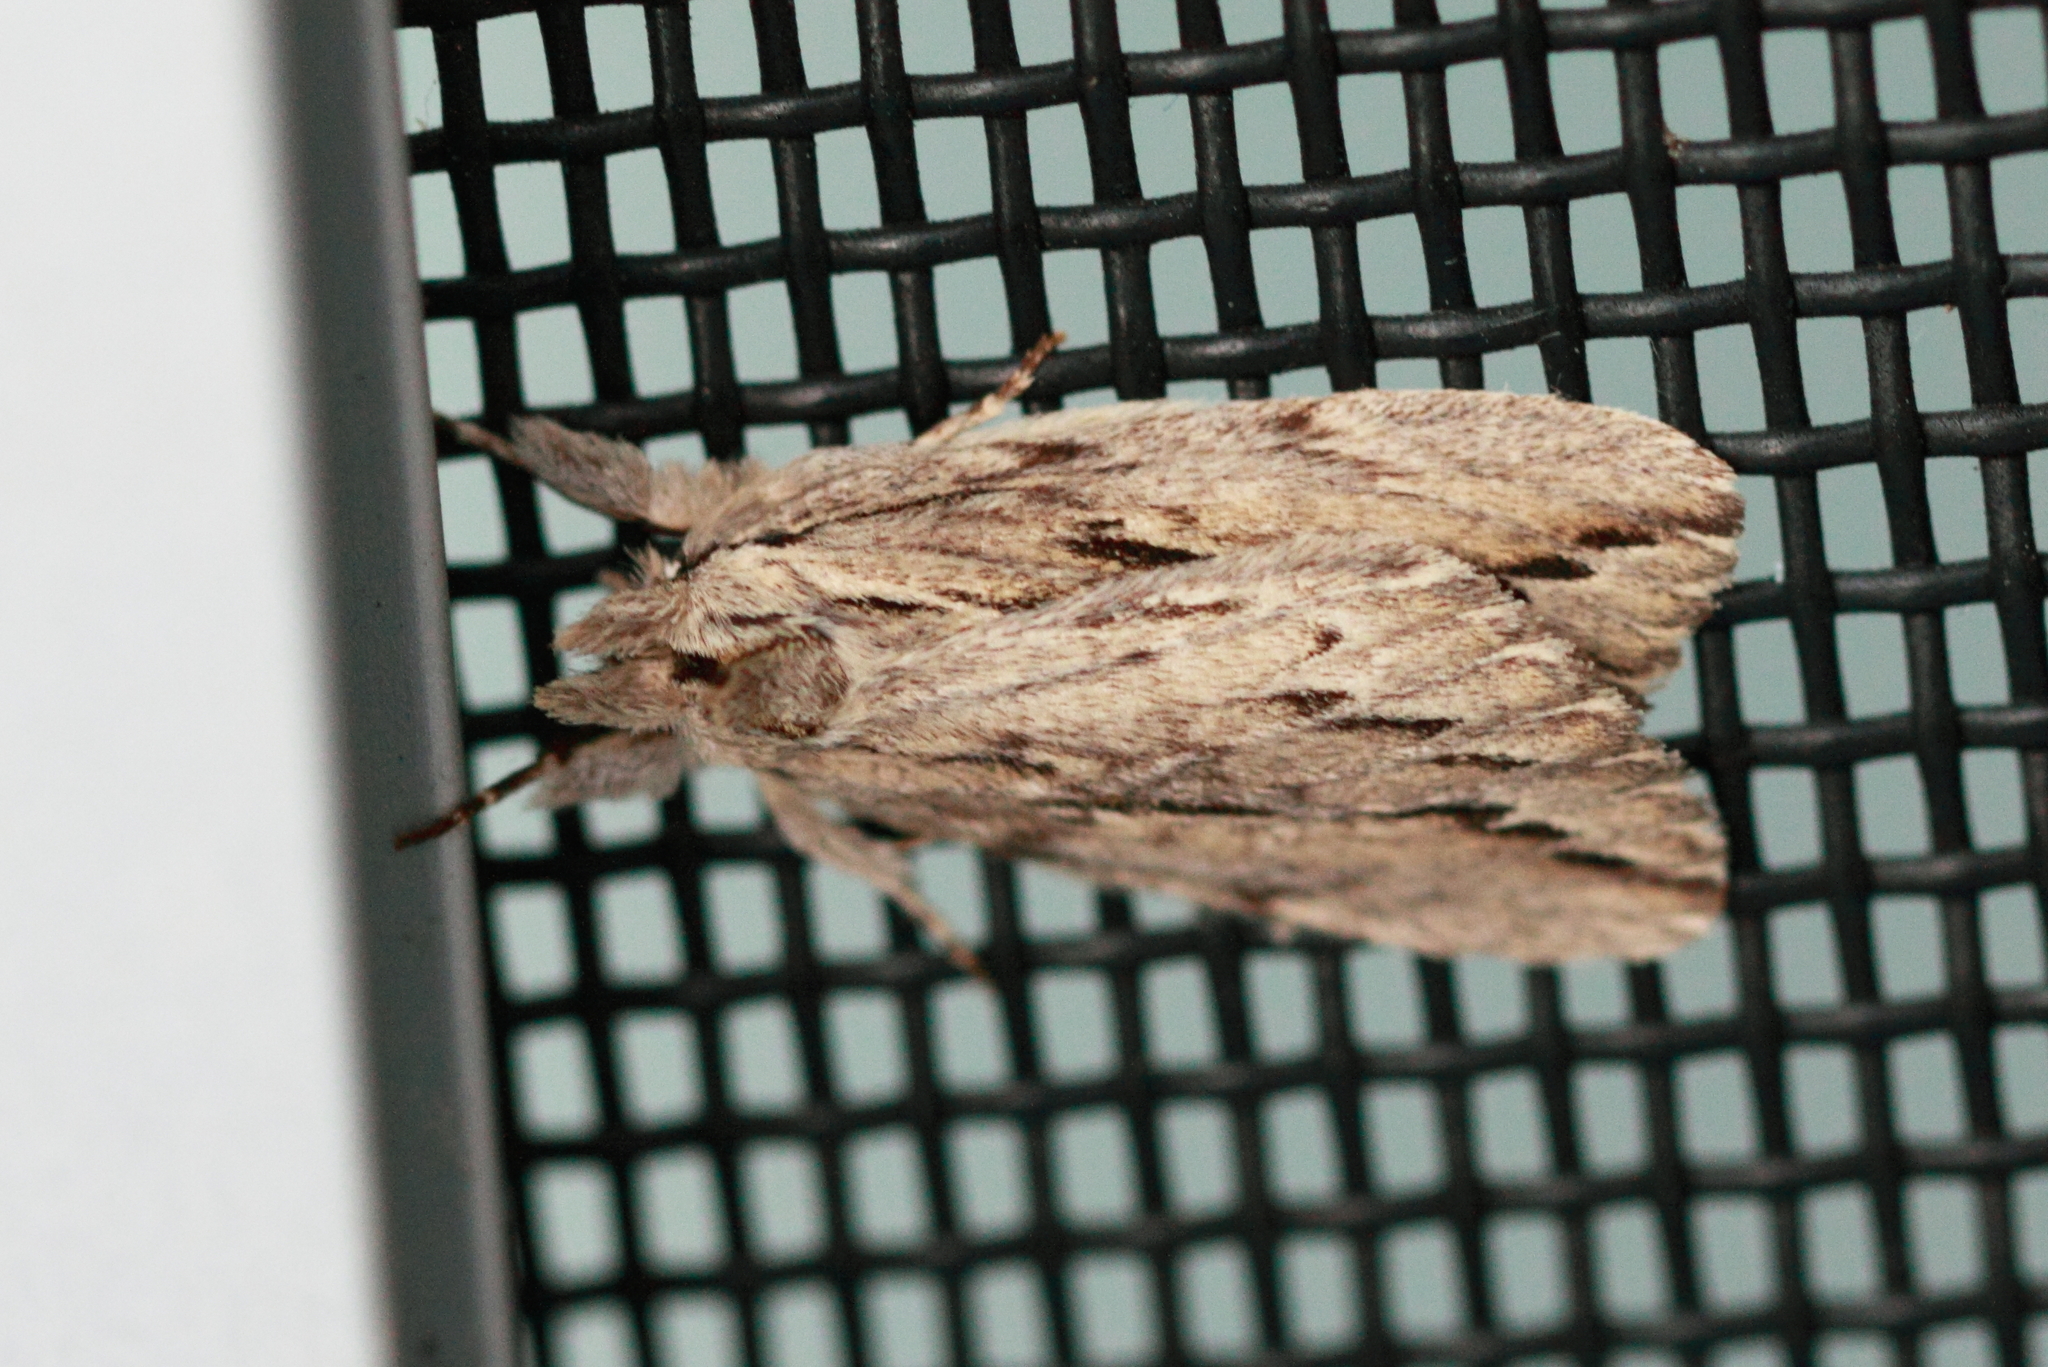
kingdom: Animalia
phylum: Arthropoda
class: Insecta
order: Lepidoptera
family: Notodontidae
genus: Ecnomodes
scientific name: Ecnomodes sagittaria
